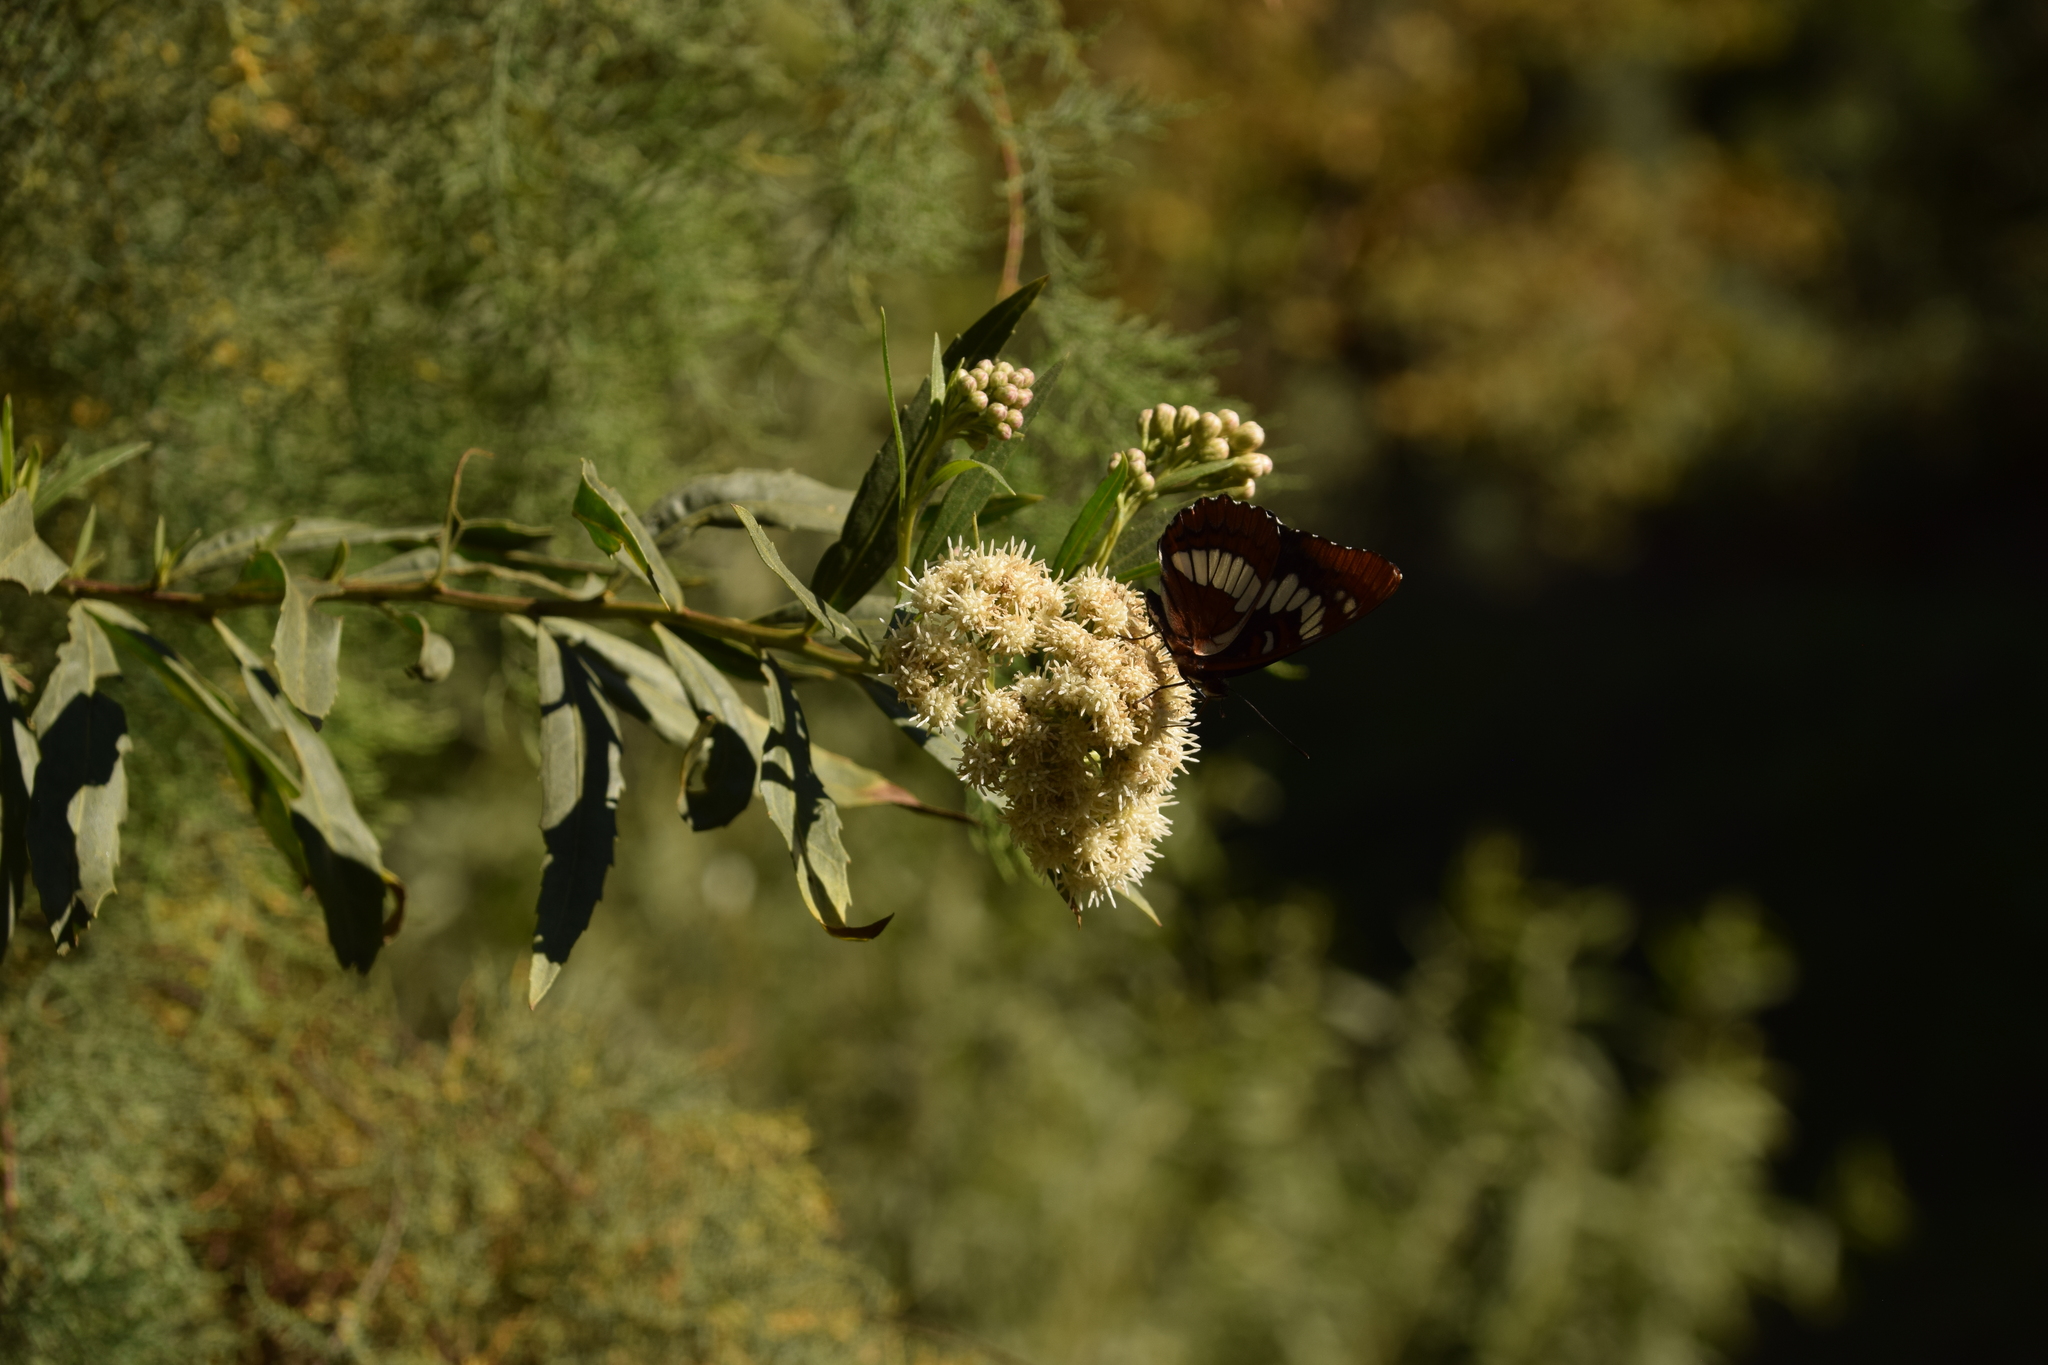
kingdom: Plantae
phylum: Tracheophyta
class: Magnoliopsida
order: Asterales
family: Asteraceae
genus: Baccharis
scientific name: Baccharis salicifolia
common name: Sticky baccharis
